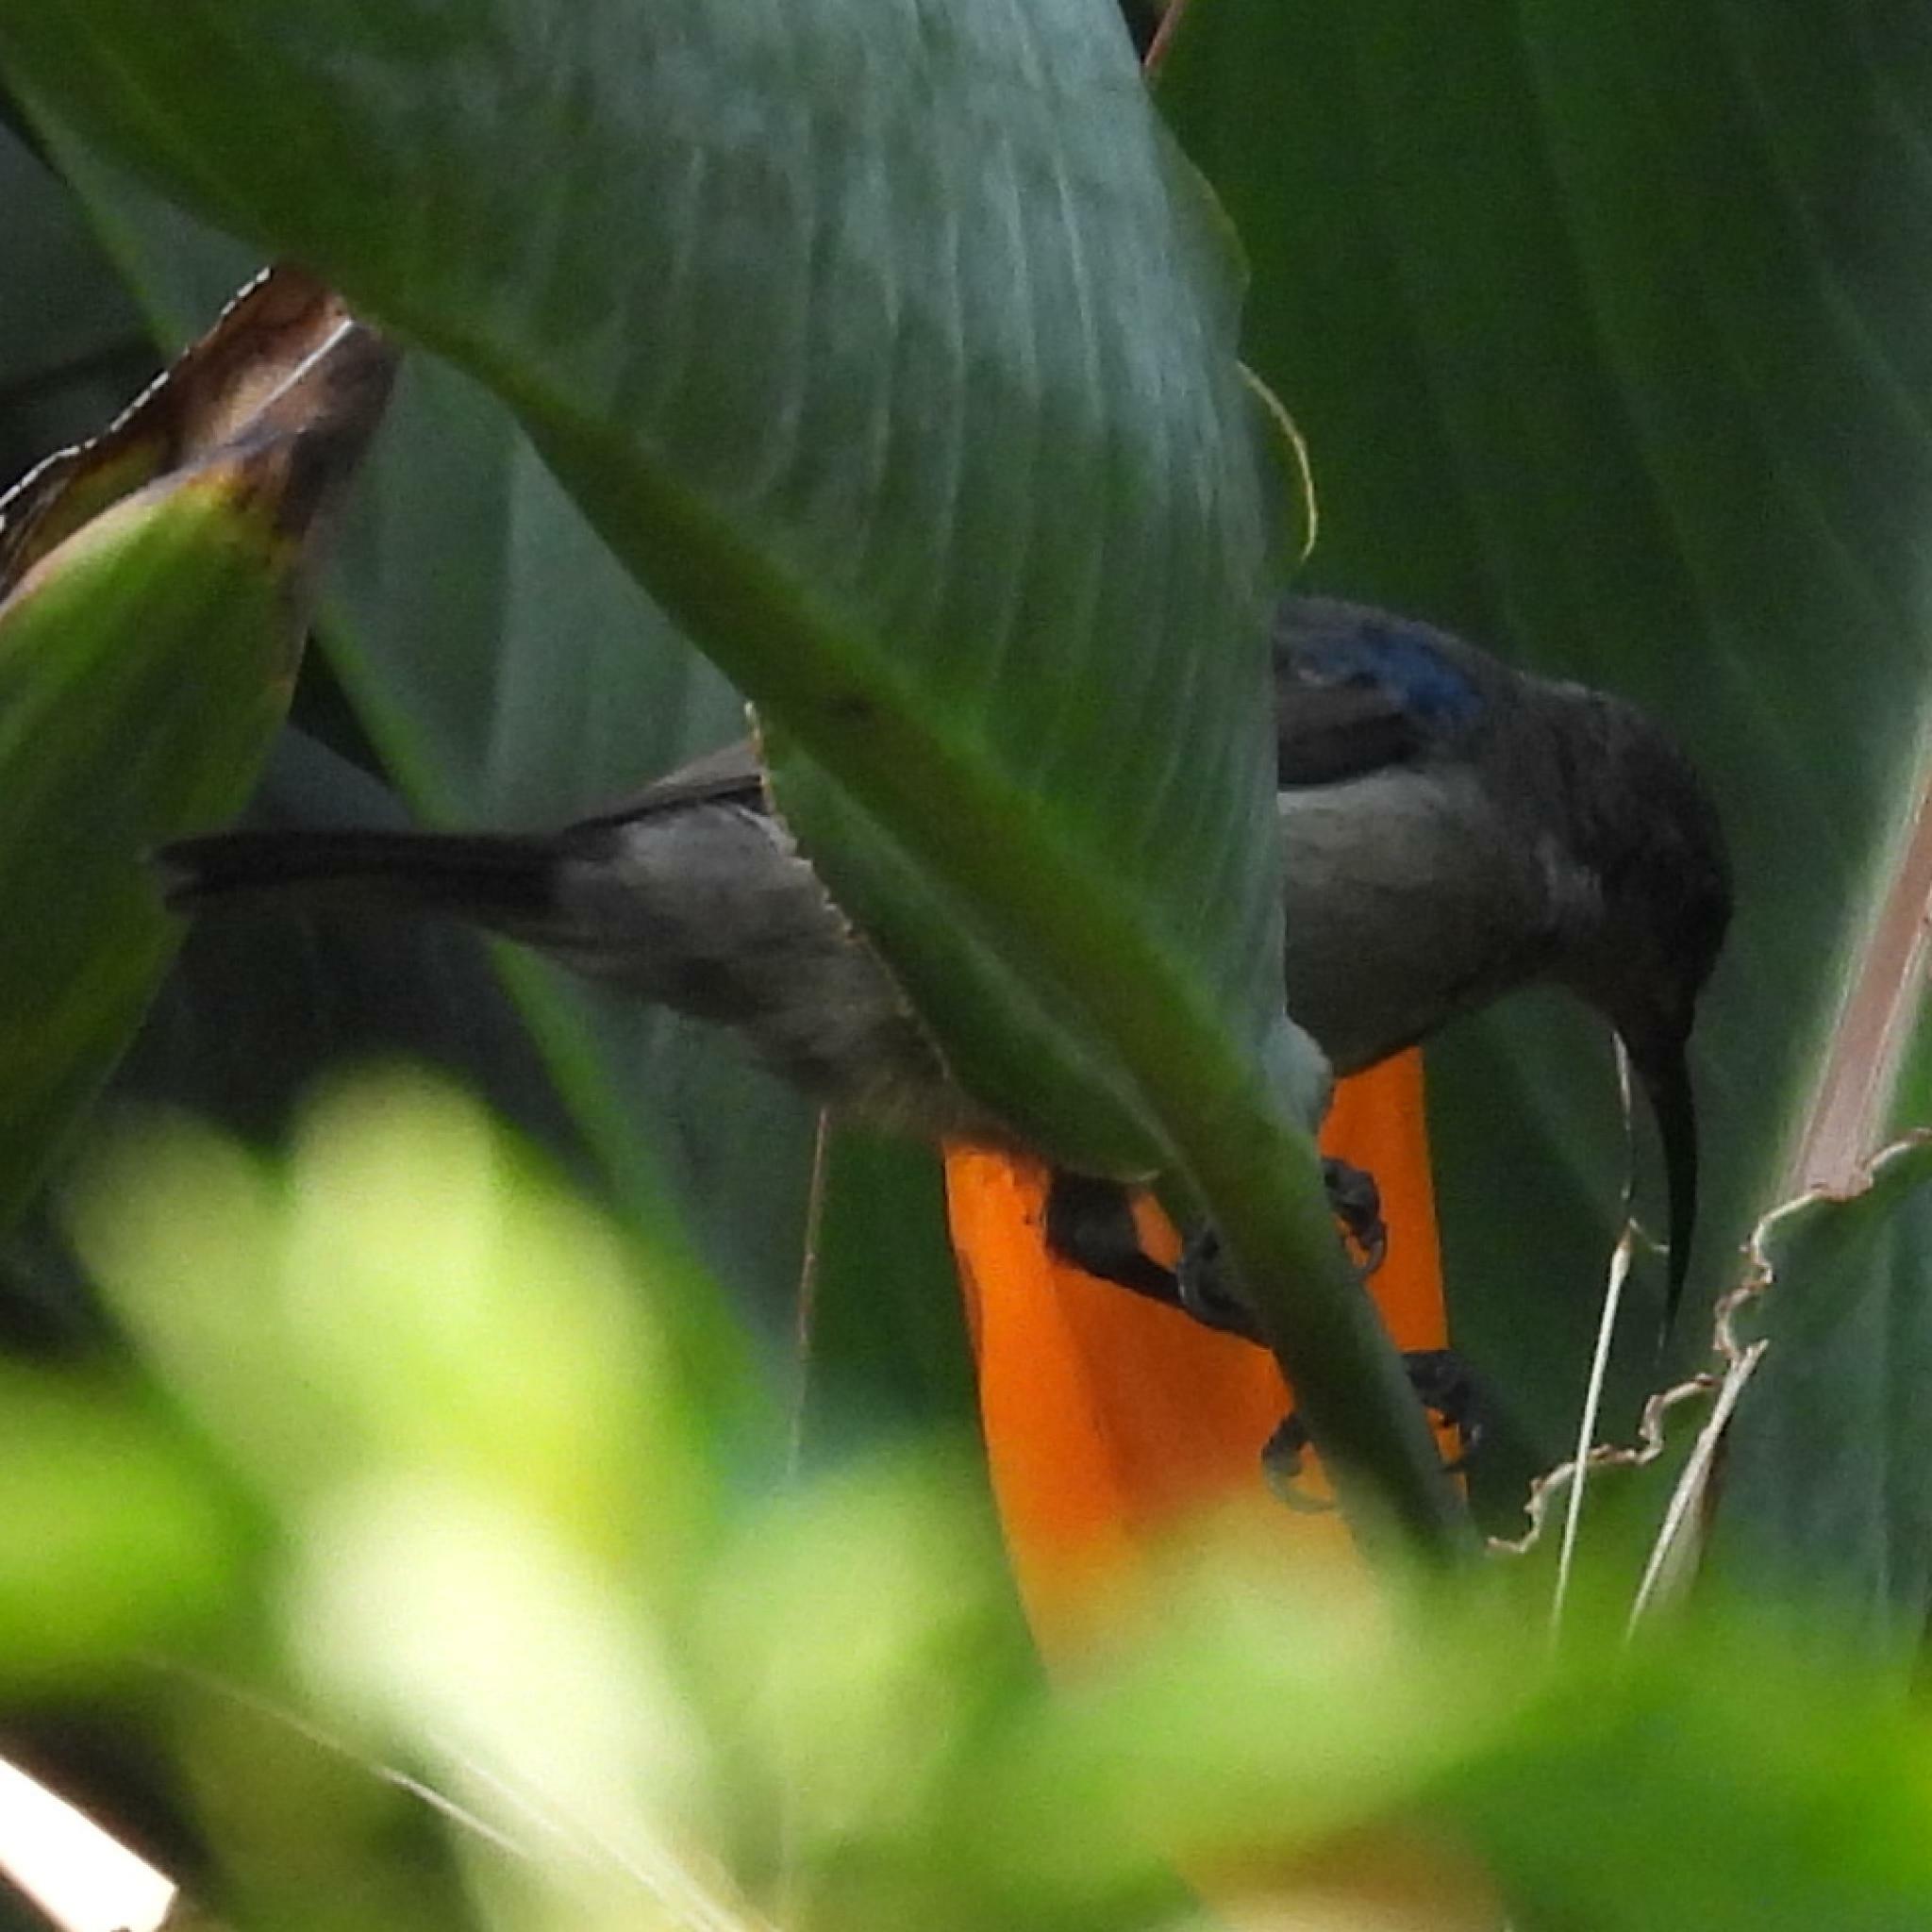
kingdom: Animalia
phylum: Chordata
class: Aves
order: Passeriformes
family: Nectariniidae
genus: Cyanomitra
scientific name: Cyanomitra veroxii
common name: Grey sunbird
